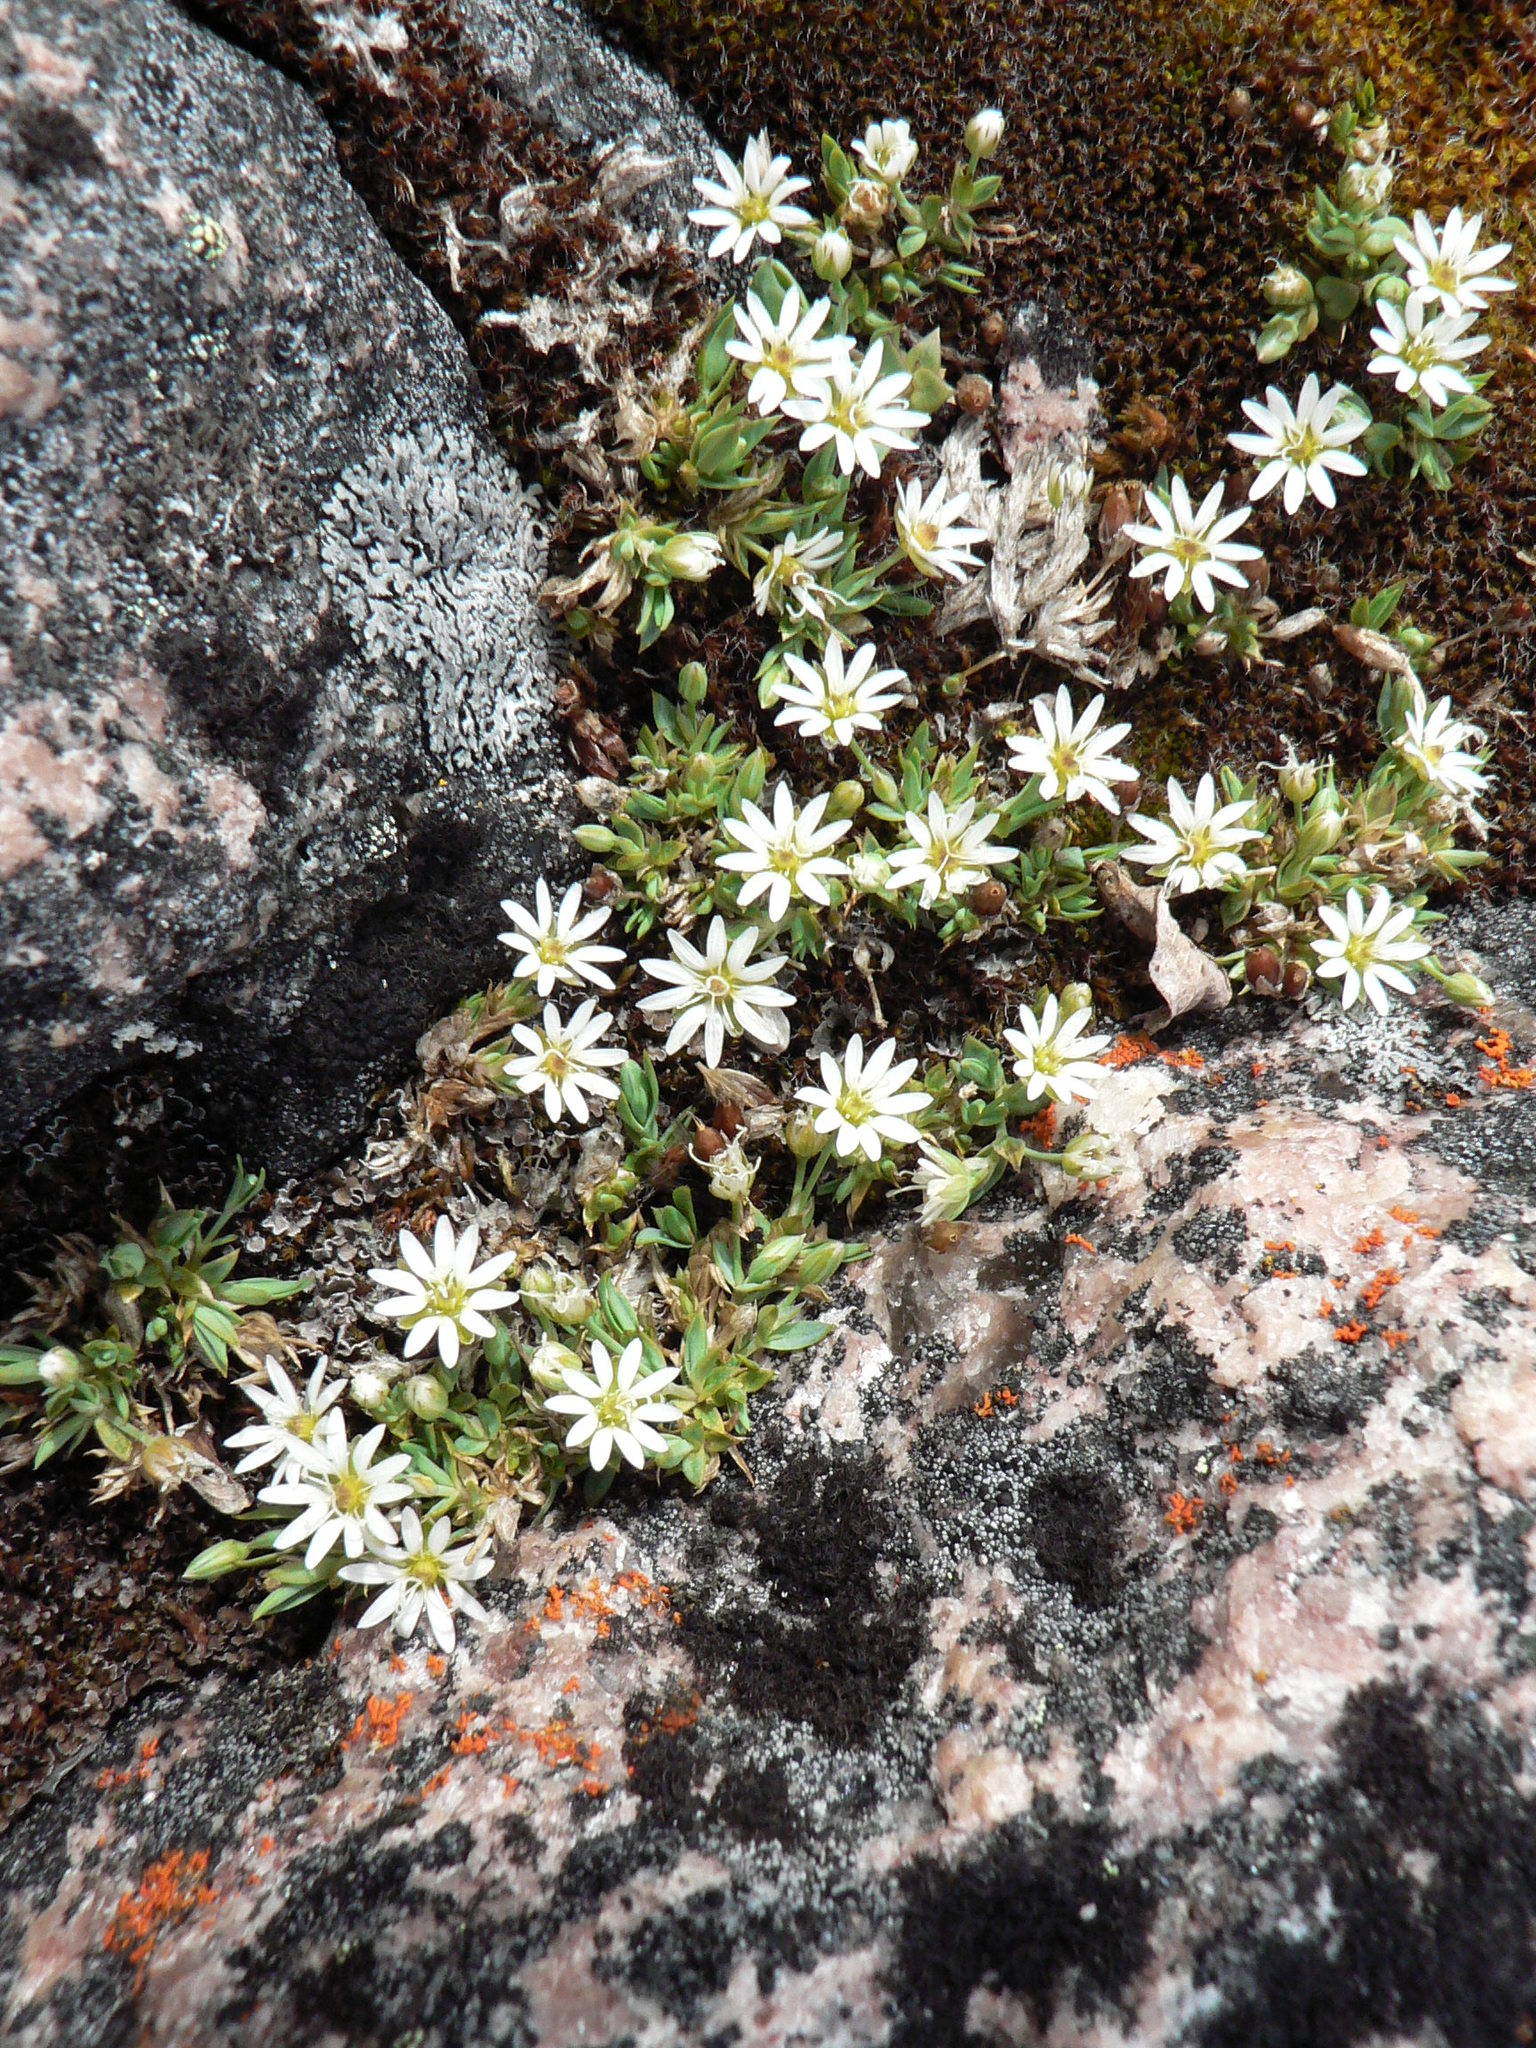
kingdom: Plantae
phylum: Tracheophyta
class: Magnoliopsida
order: Caryophyllales
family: Caryophyllaceae
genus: Stellaria
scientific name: Stellaria longipes
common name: Goldie's starwort
